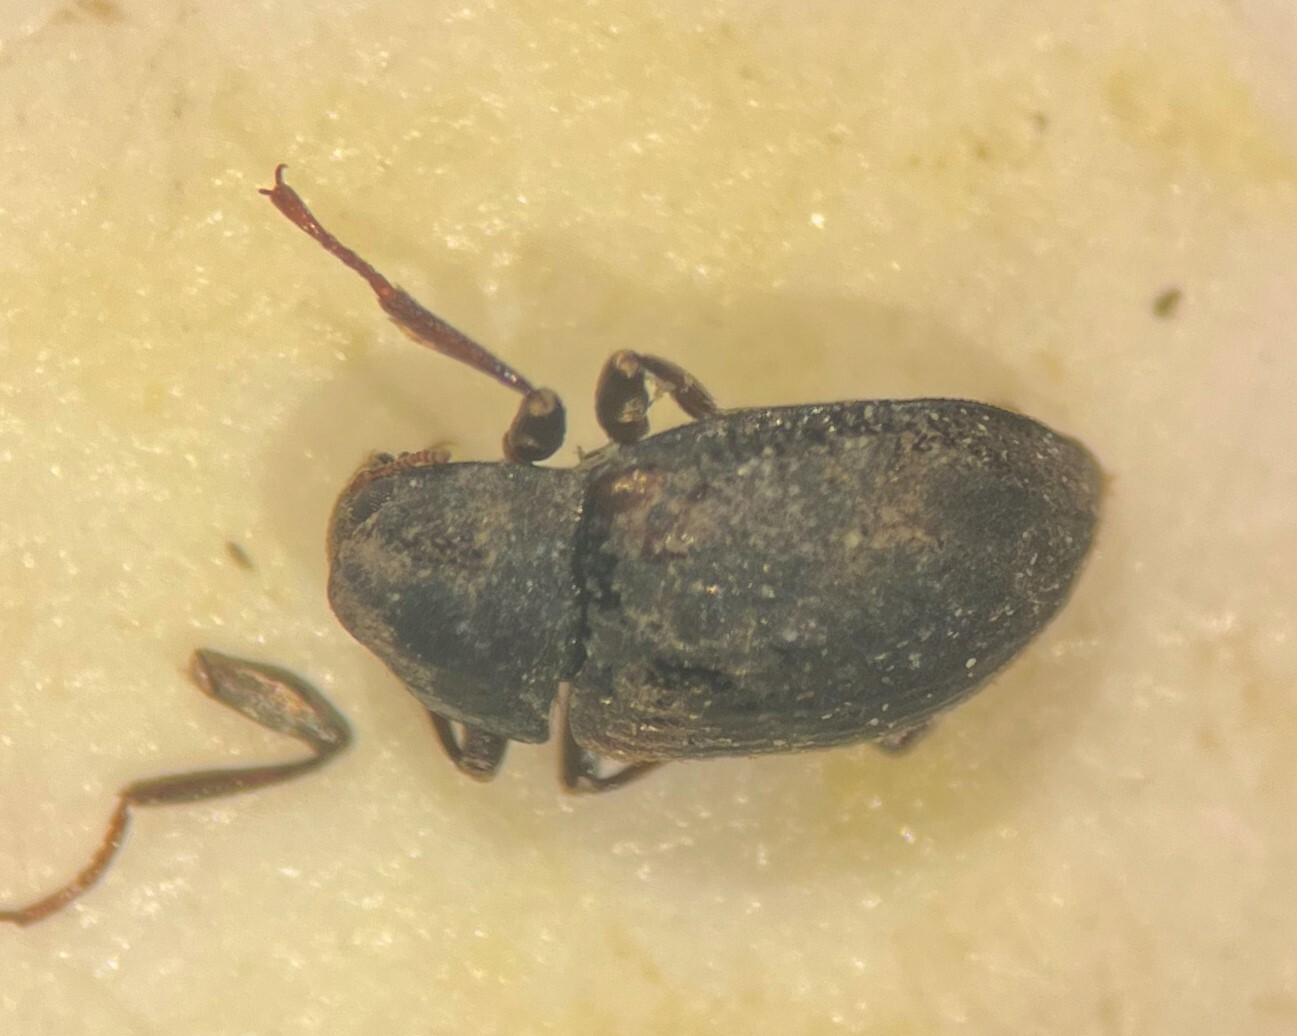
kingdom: Animalia
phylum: Arthropoda
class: Insecta
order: Coleoptera
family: Elmidae
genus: Optioservus
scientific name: Optioservus ovalis
